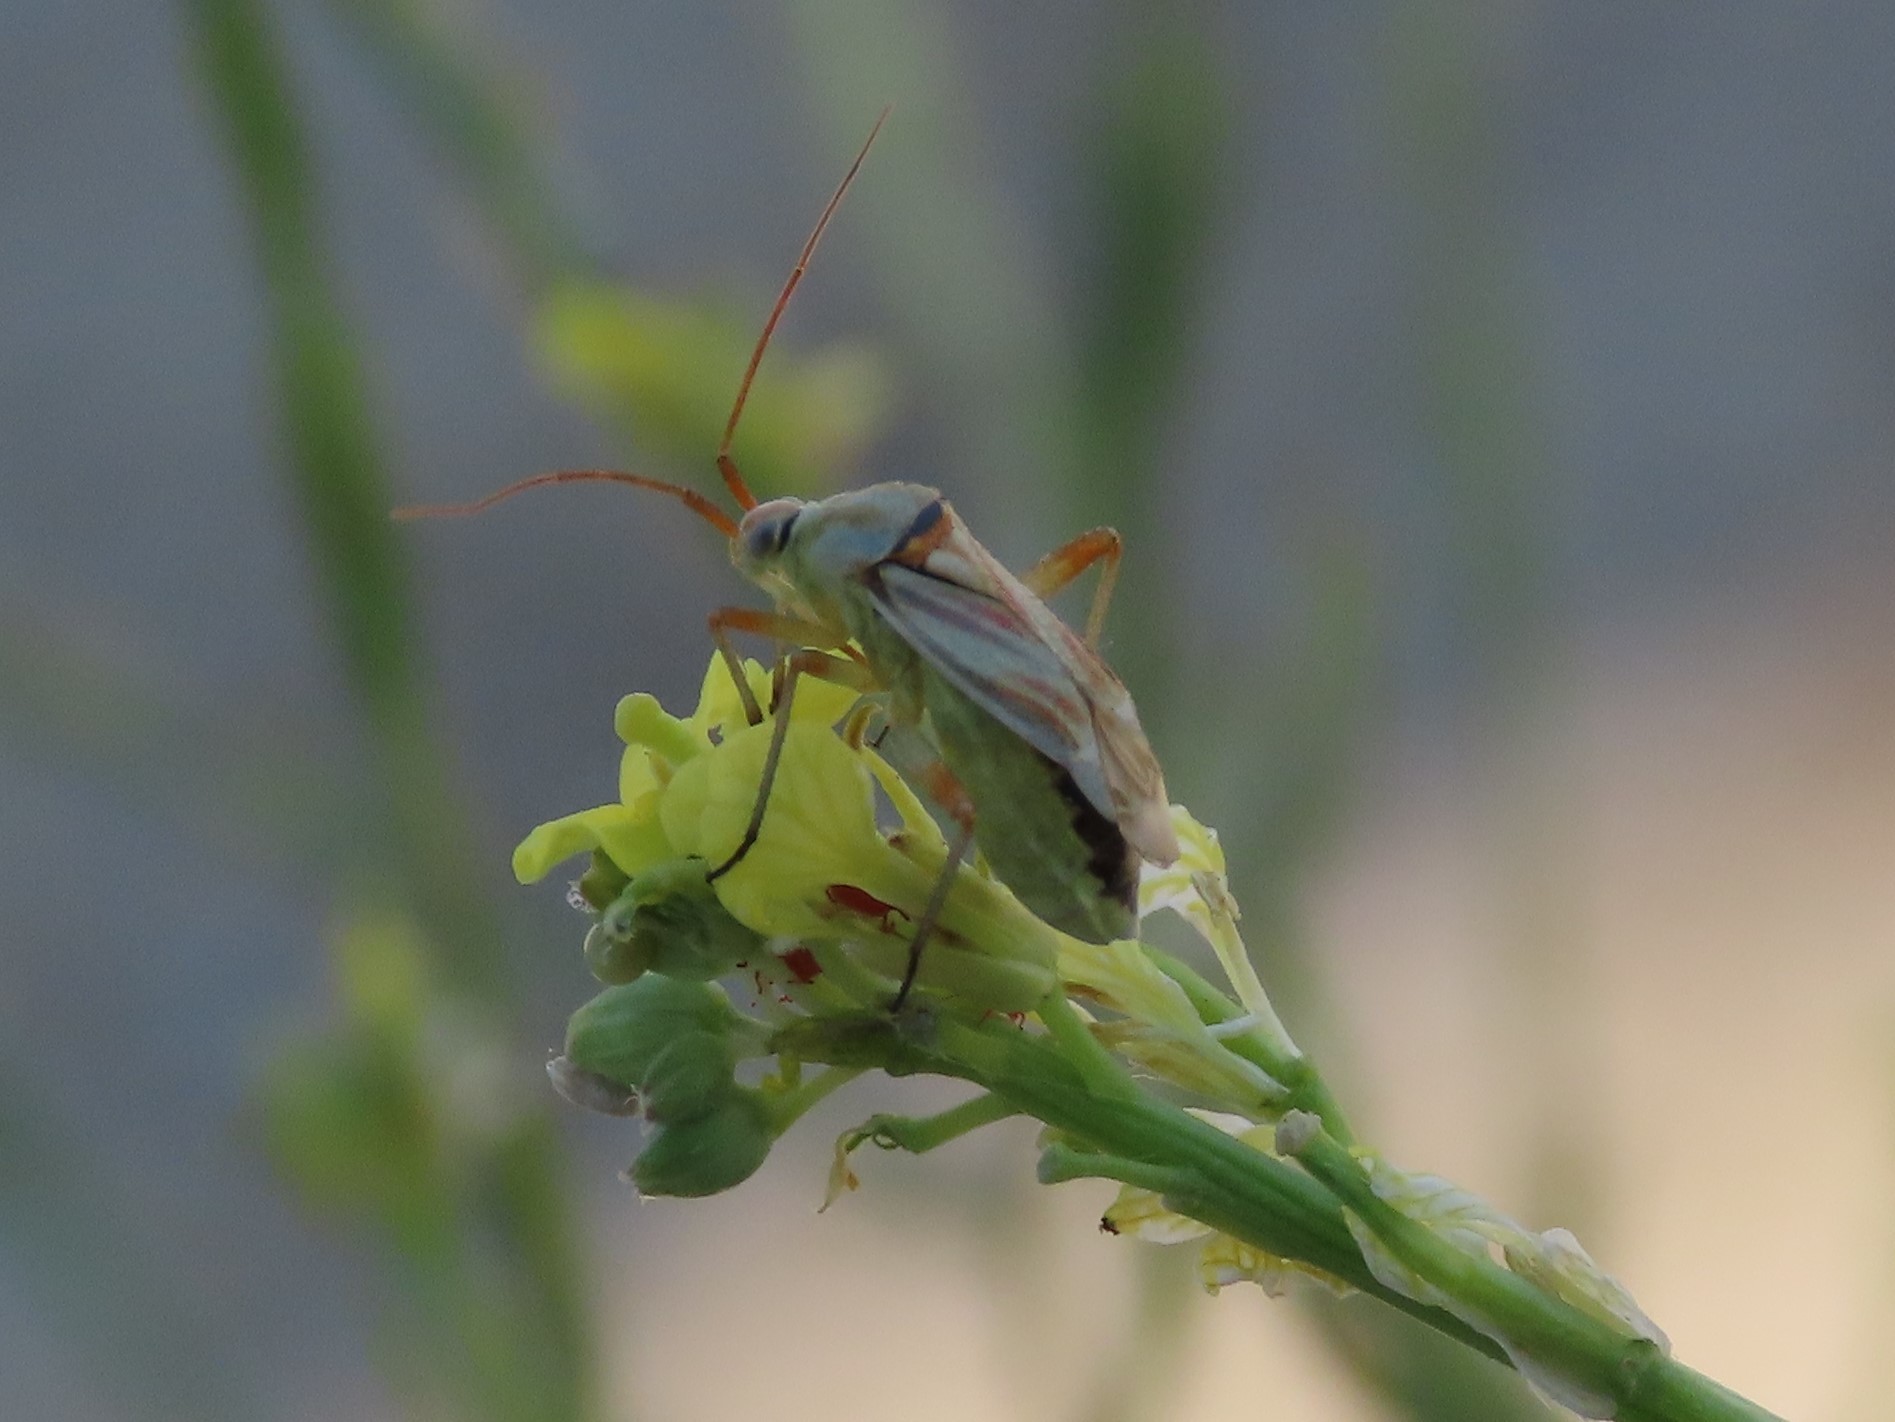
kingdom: Animalia
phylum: Arthropoda
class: Insecta
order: Hemiptera
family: Miridae
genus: Calocoris
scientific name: Calocoris roseomaculatus
